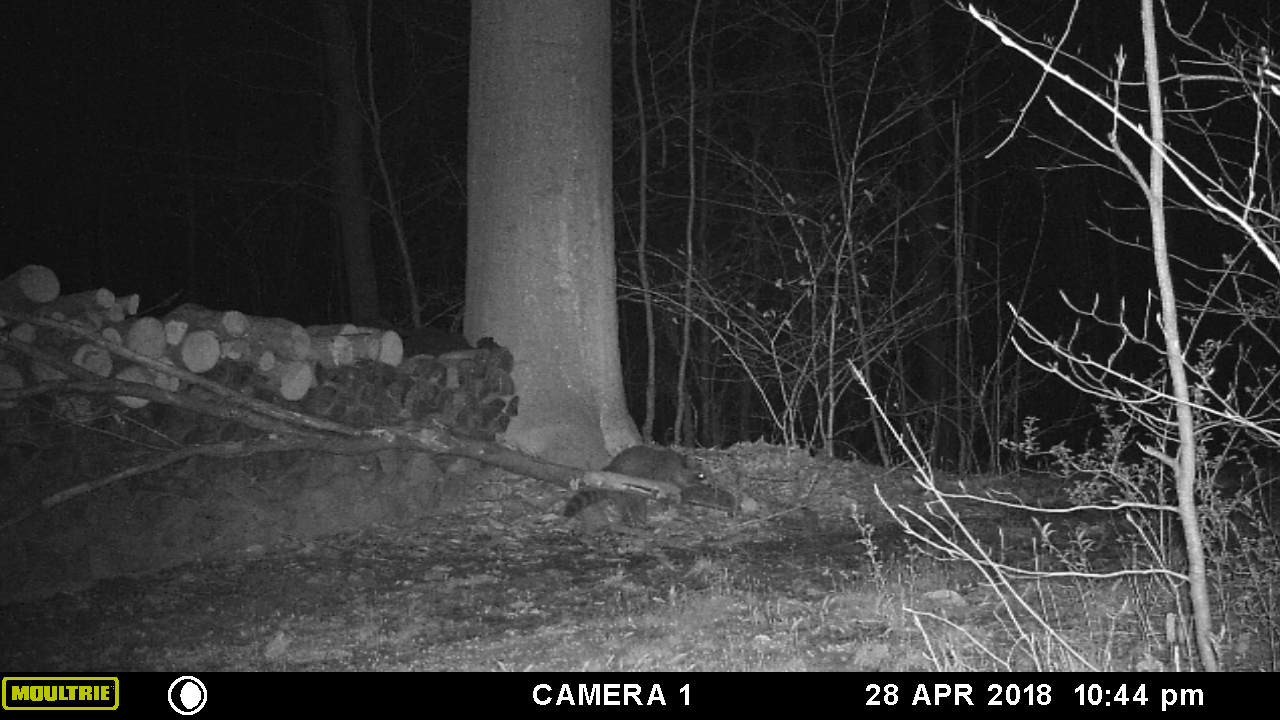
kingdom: Animalia
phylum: Chordata
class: Mammalia
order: Carnivora
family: Procyonidae
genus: Procyon
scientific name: Procyon lotor
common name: Raccoon
